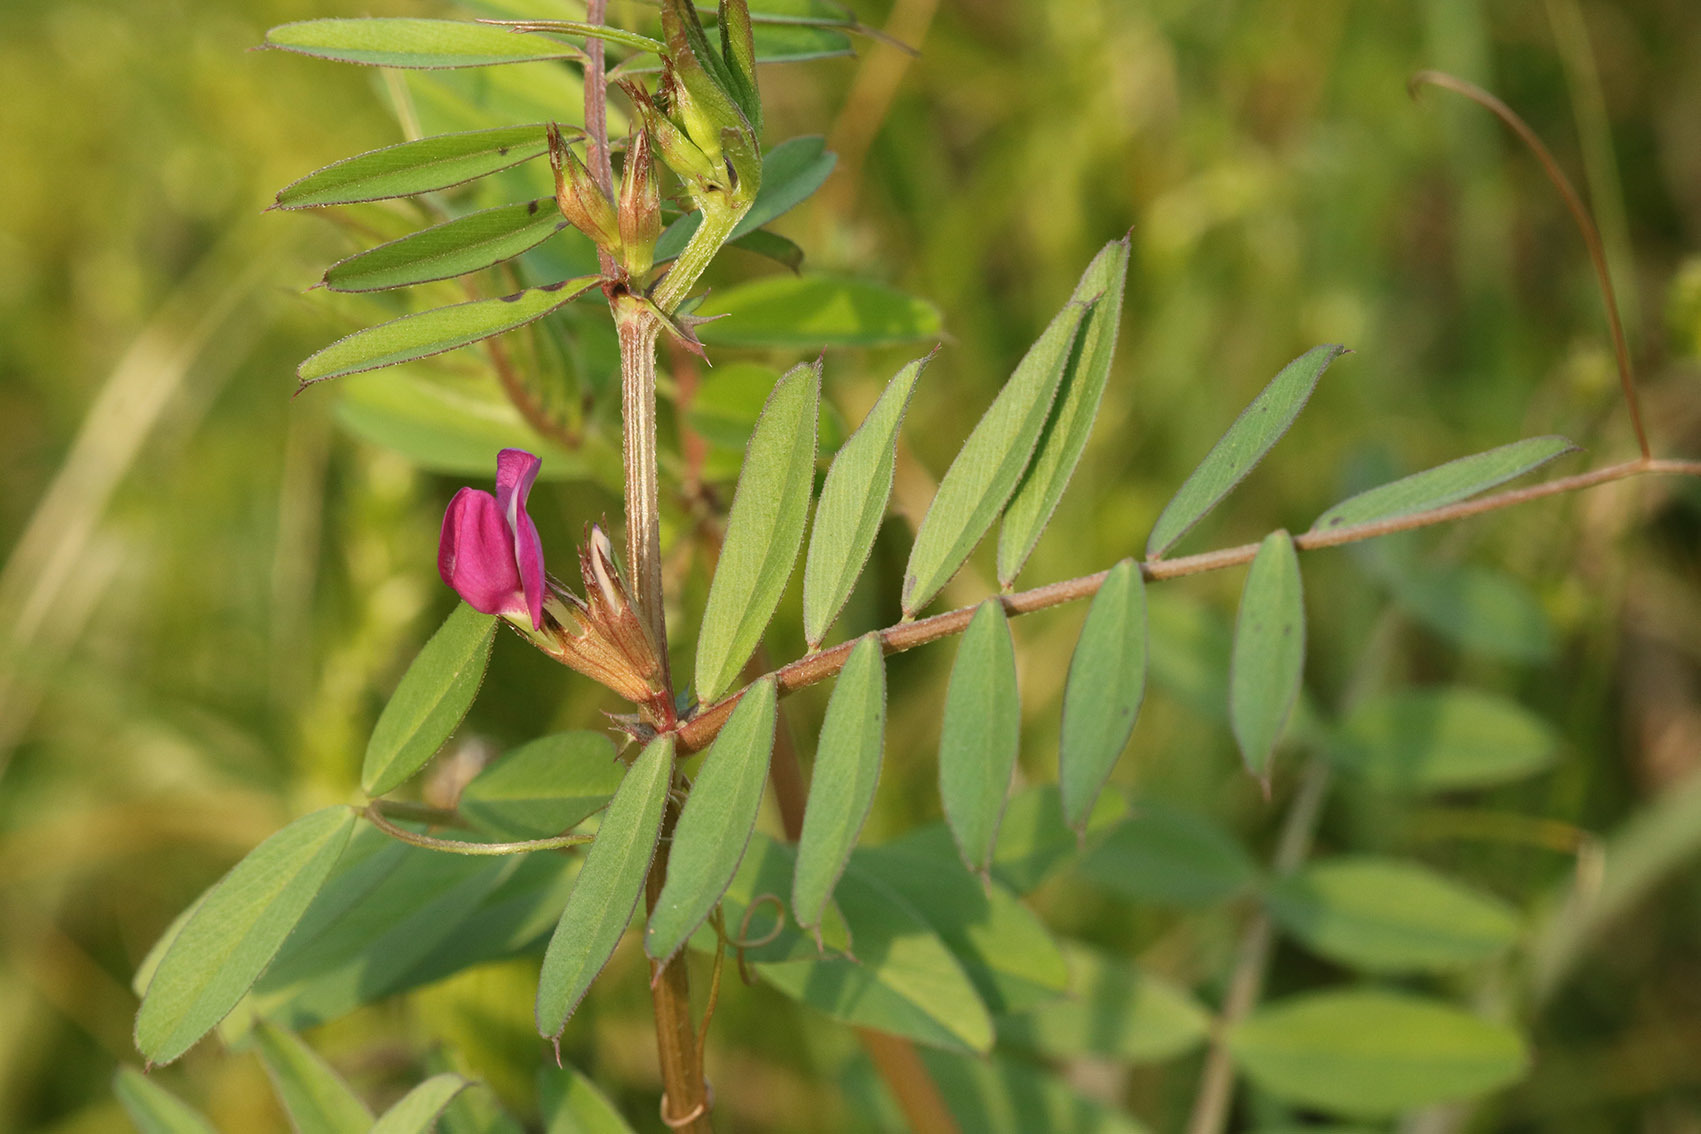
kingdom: Plantae
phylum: Tracheophyta
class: Magnoliopsida
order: Fabales
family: Fabaceae
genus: Vicia
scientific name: Vicia sativa
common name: Garden vetch
